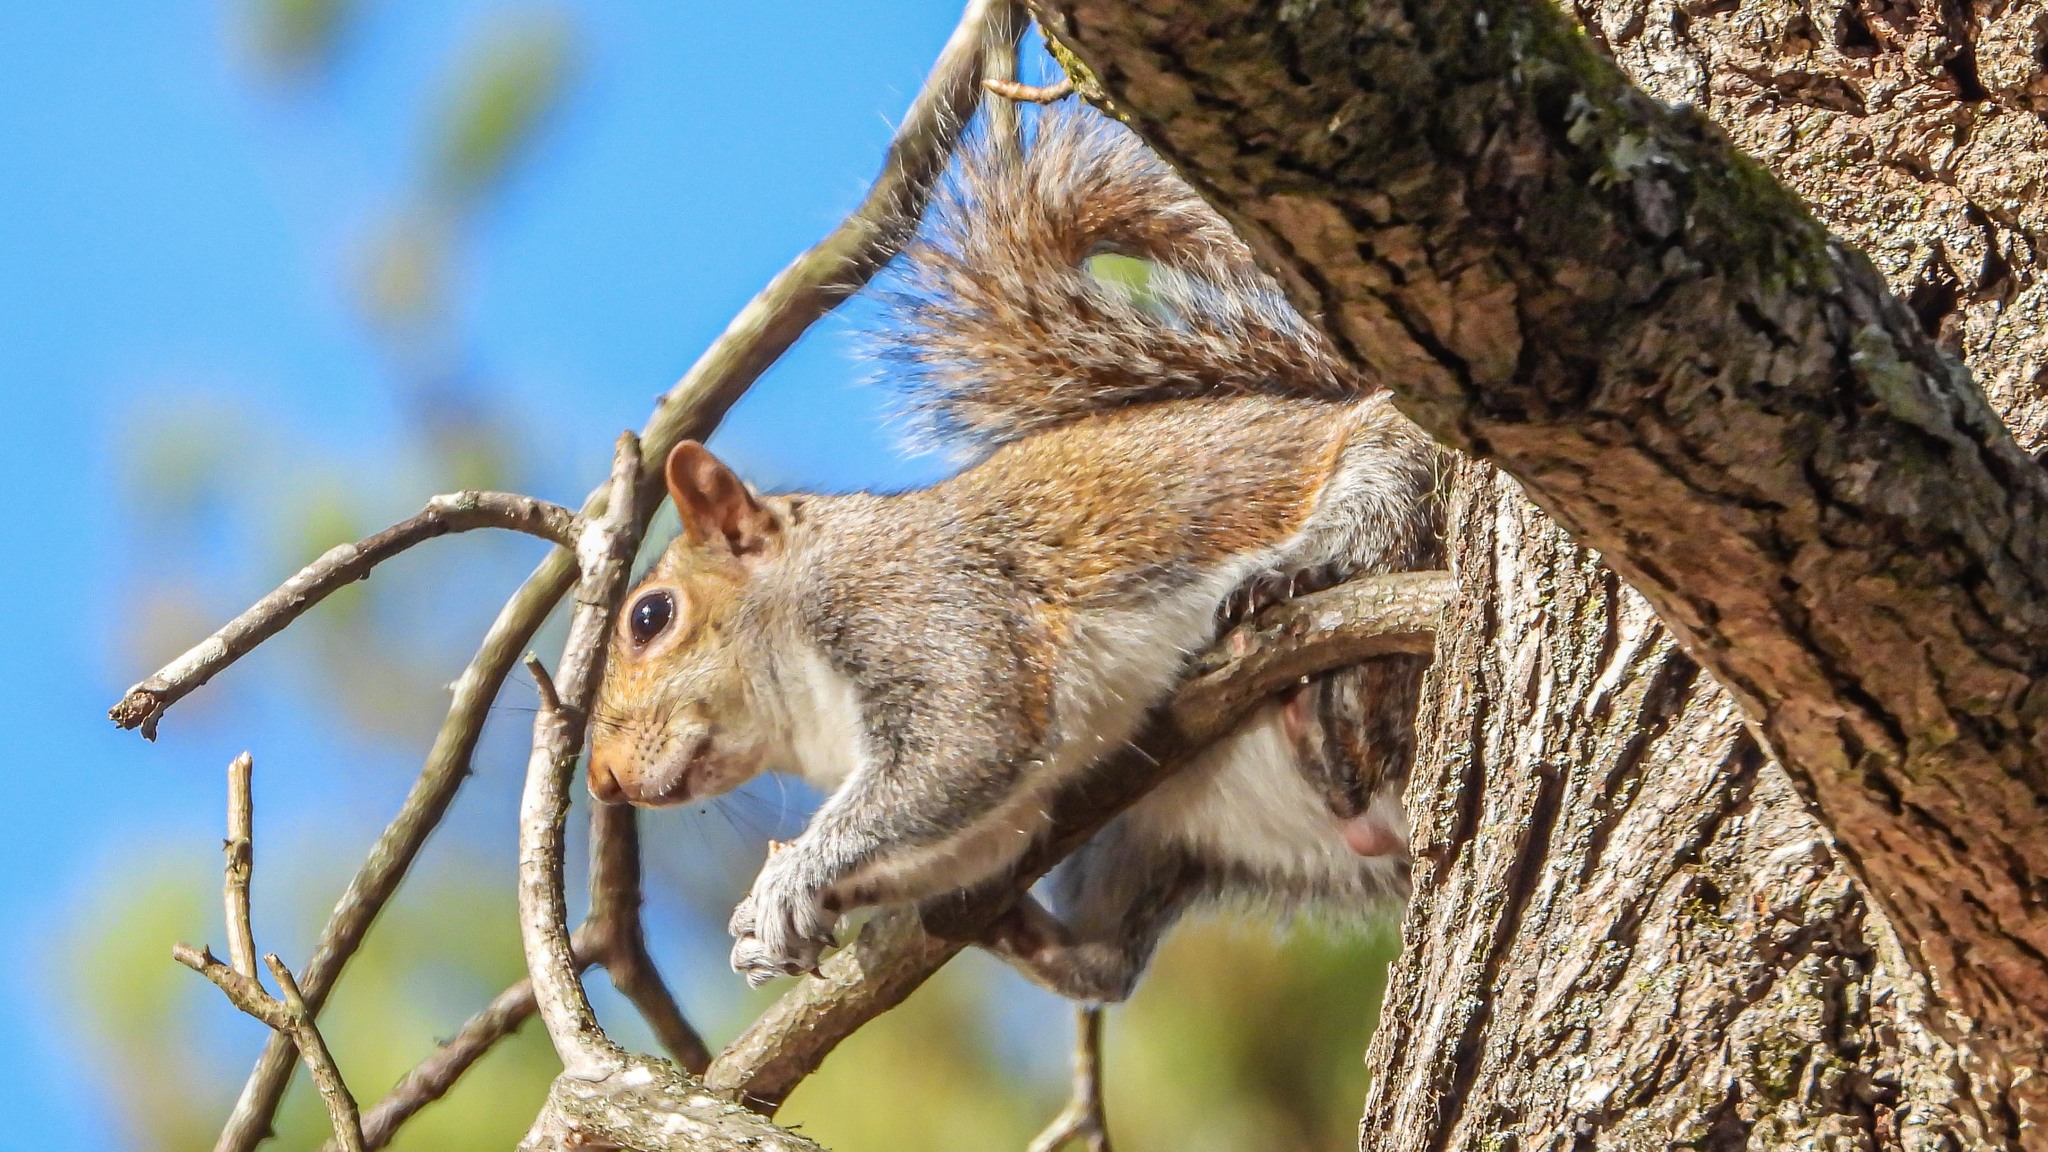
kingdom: Animalia
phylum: Chordata
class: Mammalia
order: Rodentia
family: Sciuridae
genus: Sciurus
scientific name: Sciurus carolinensis
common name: Eastern gray squirrel
